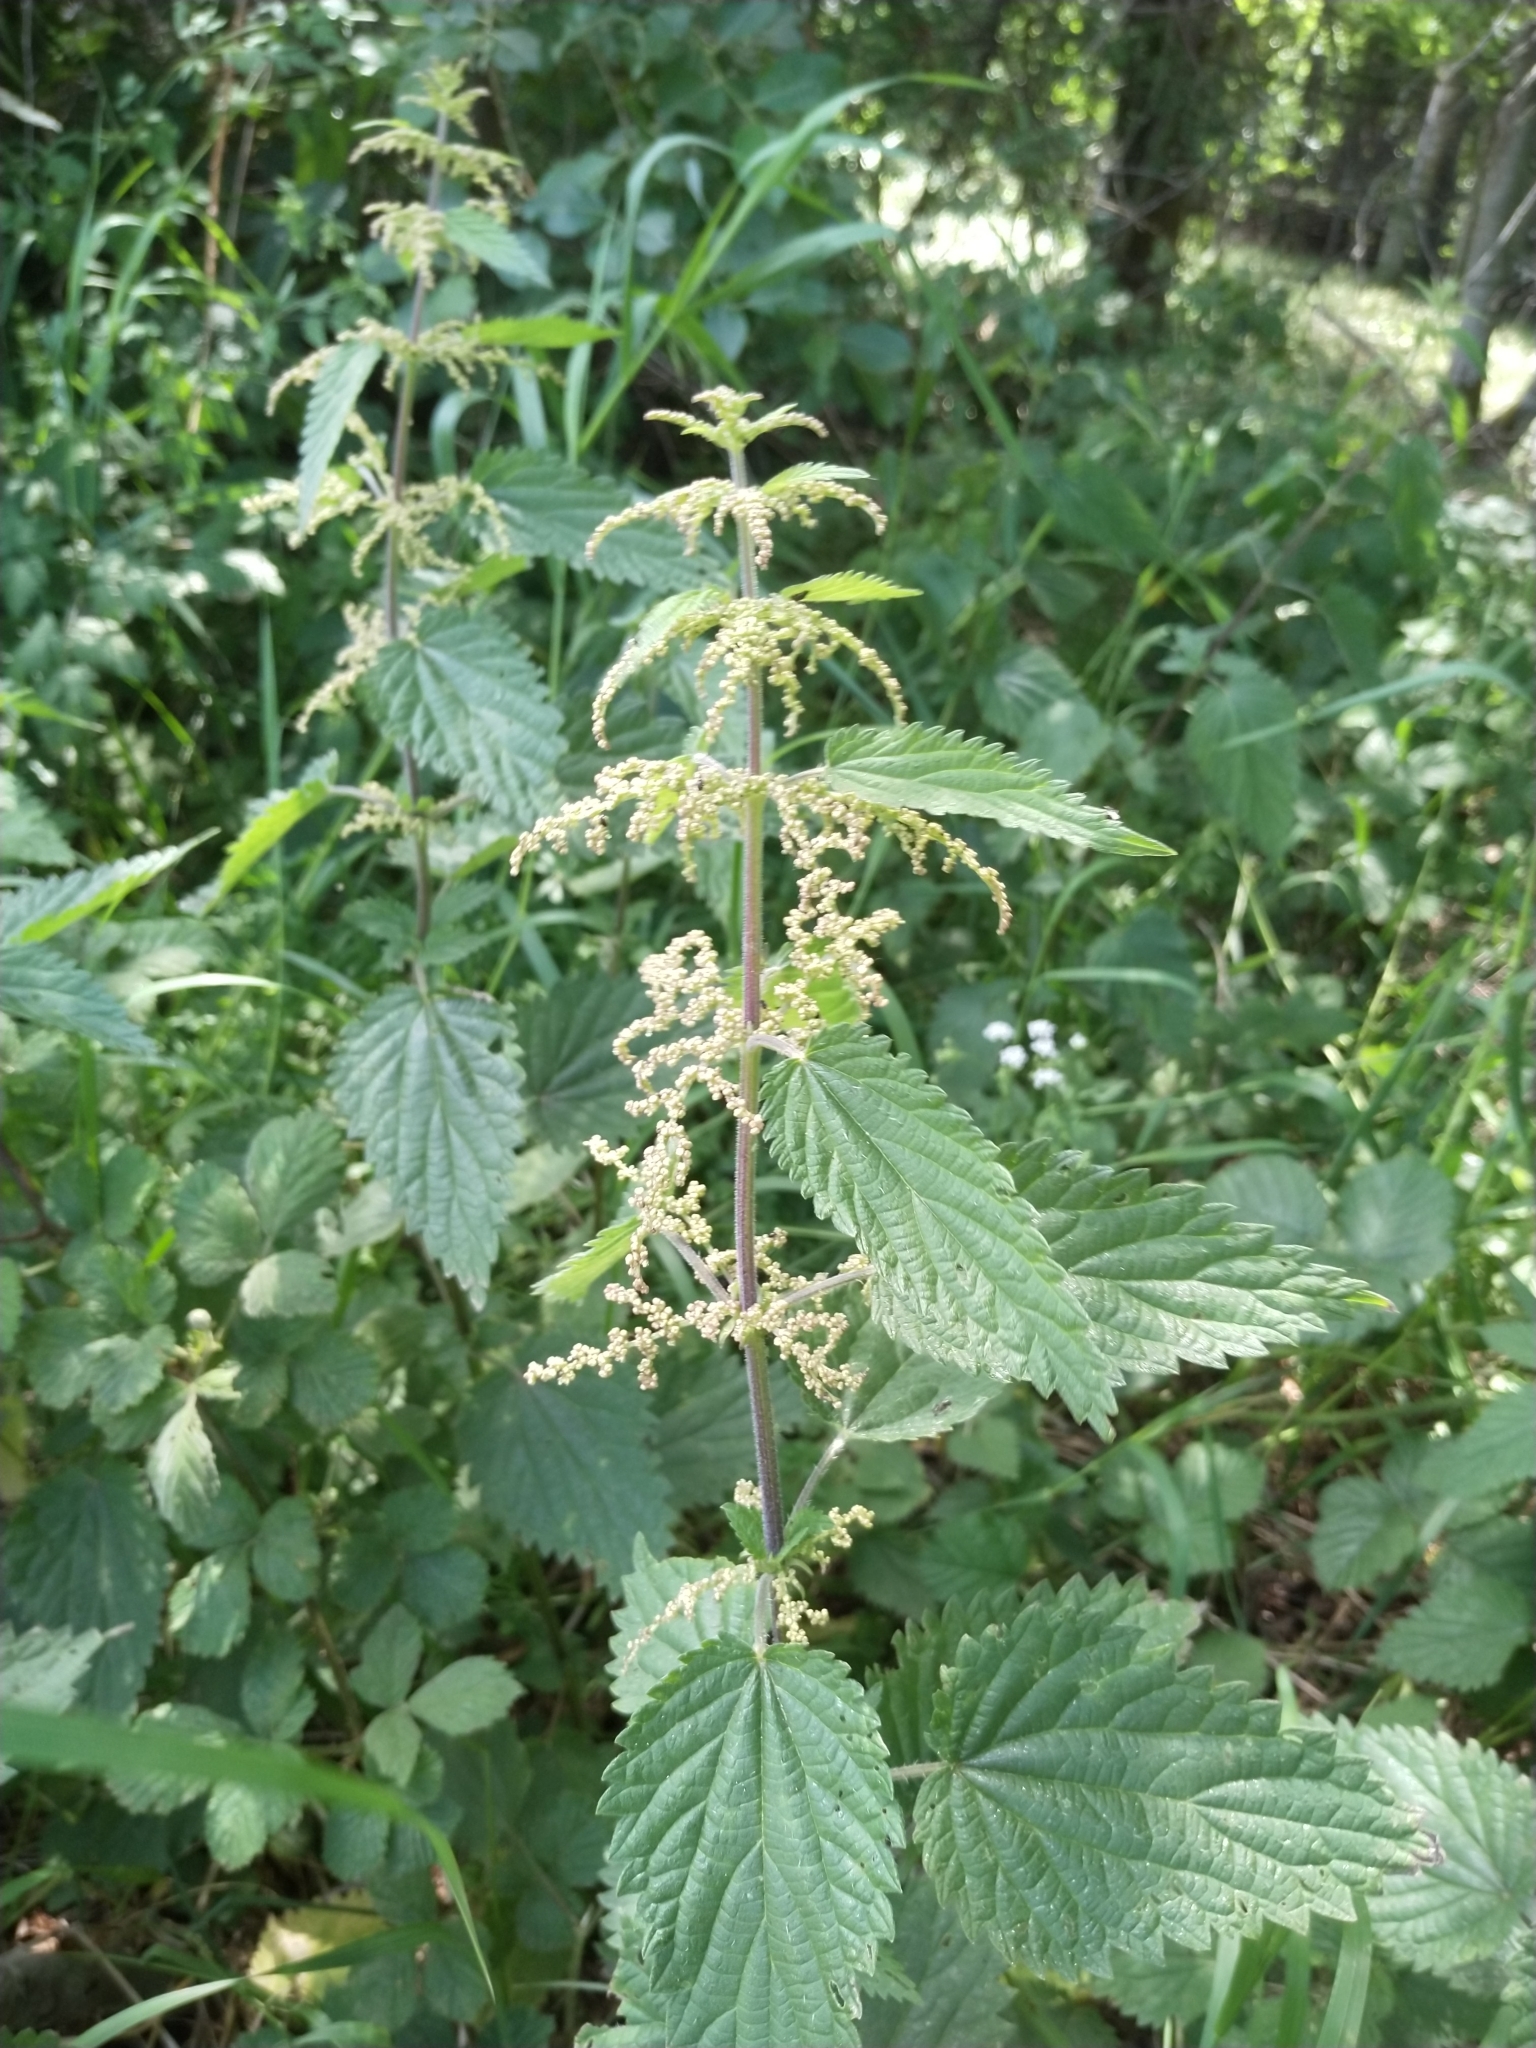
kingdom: Plantae
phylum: Tracheophyta
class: Magnoliopsida
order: Rosales
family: Urticaceae
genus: Urtica
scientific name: Urtica dioica
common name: Common nettle
